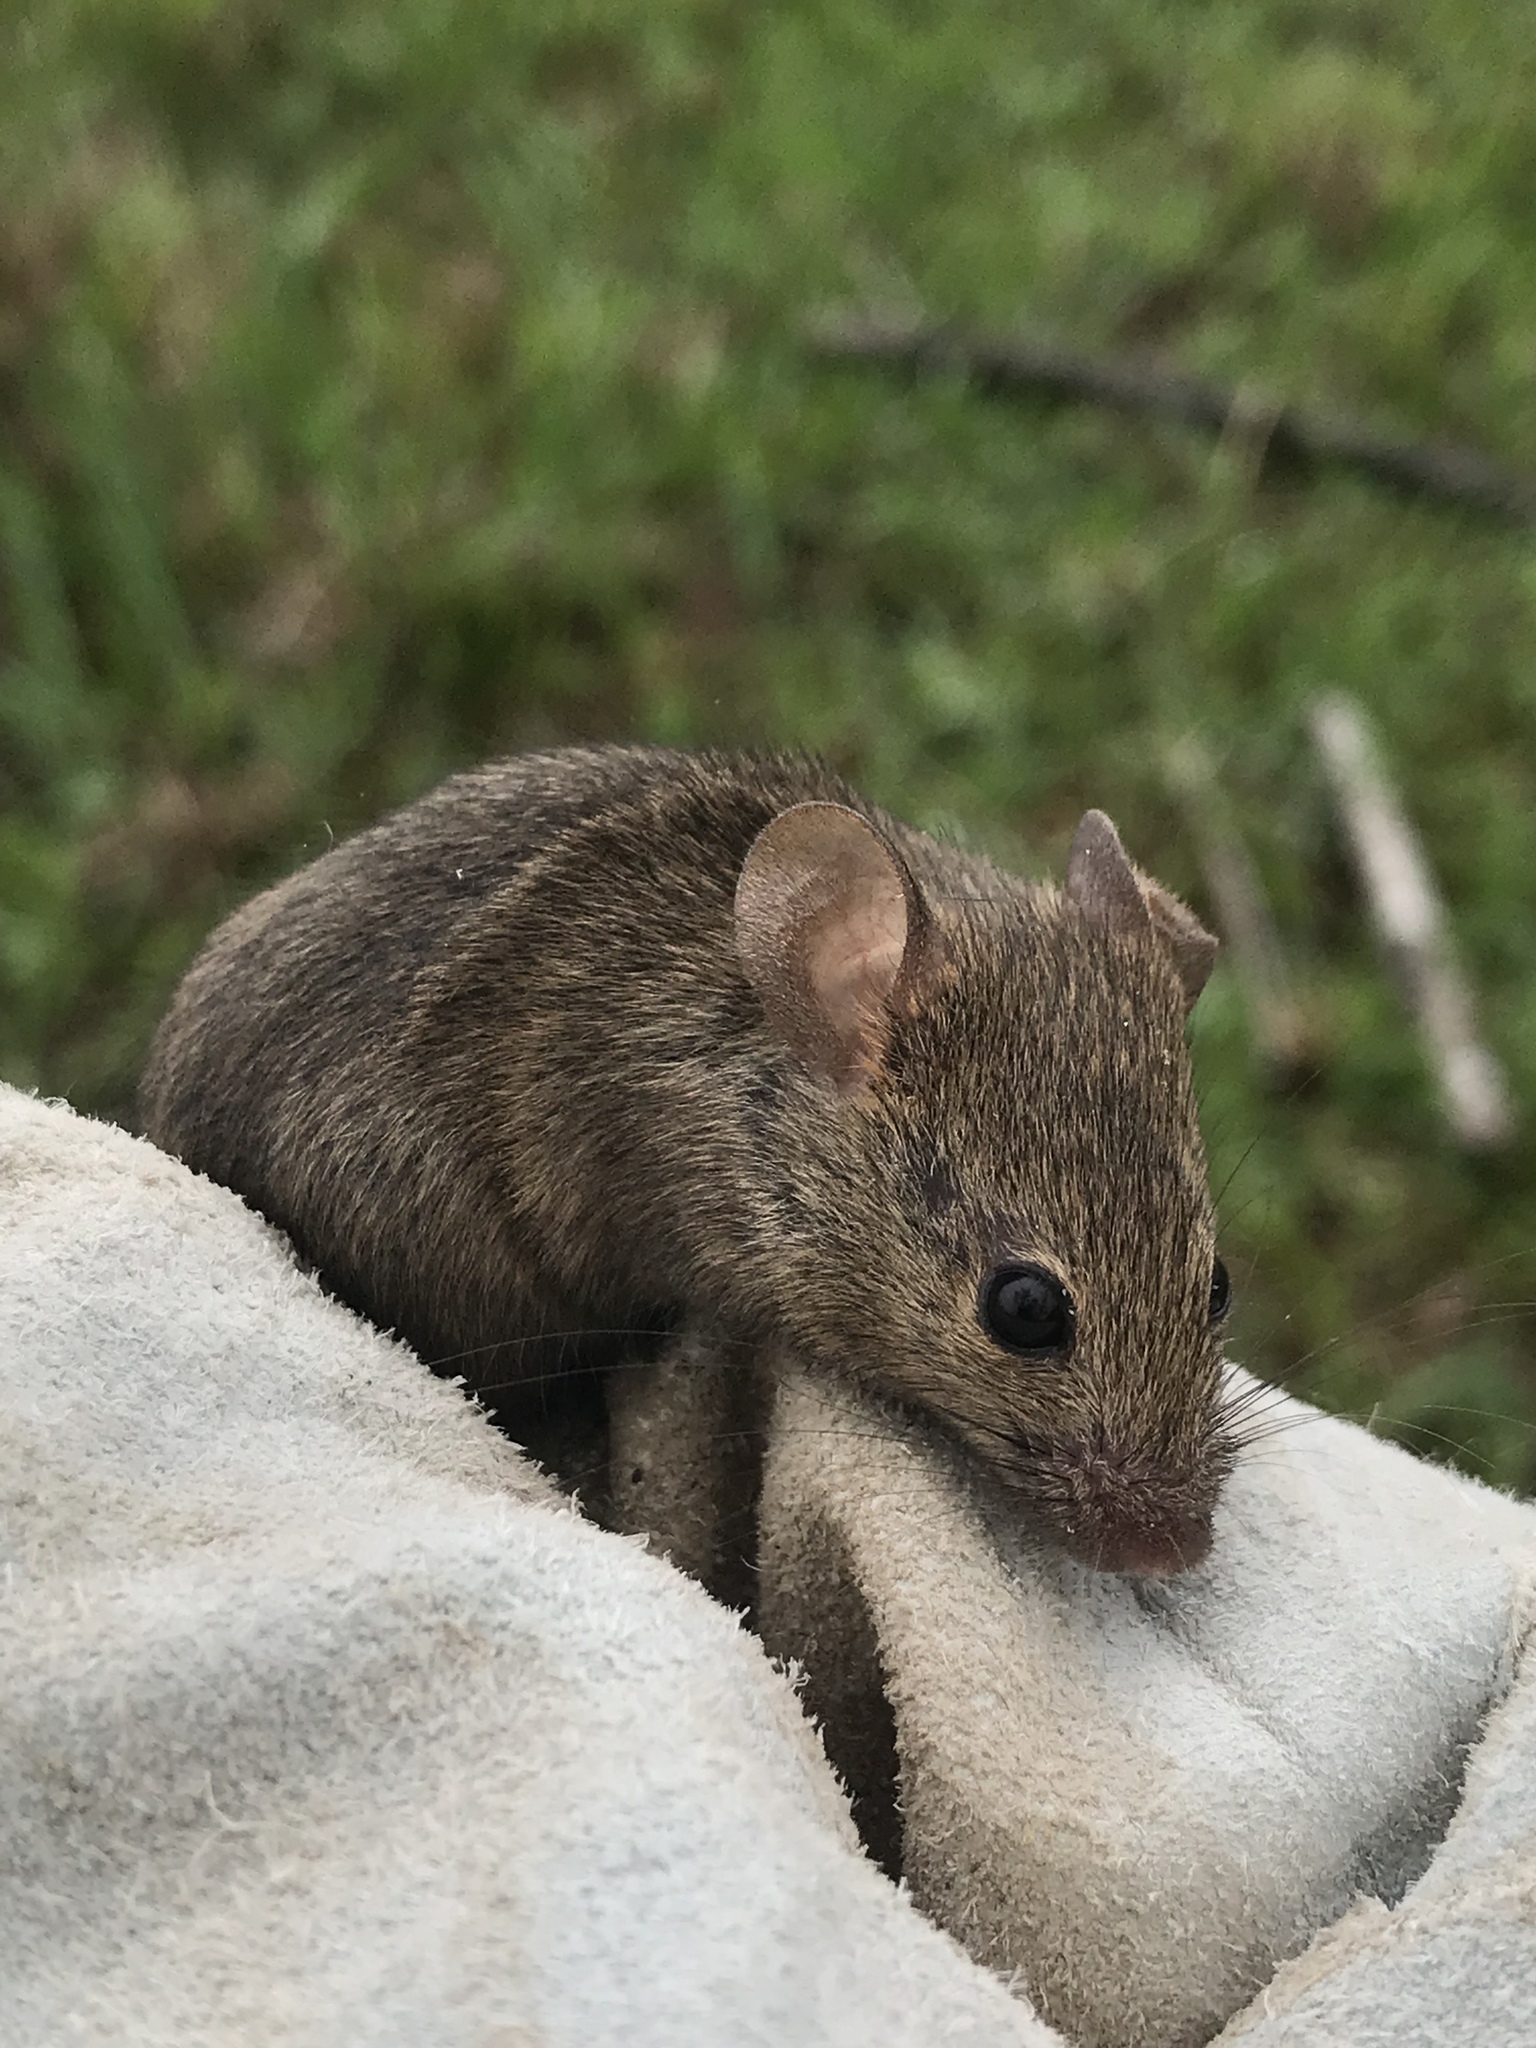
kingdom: Animalia
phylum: Chordata
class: Mammalia
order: Rodentia
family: Muridae
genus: Mus
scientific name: Mus musculus
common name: House mouse
